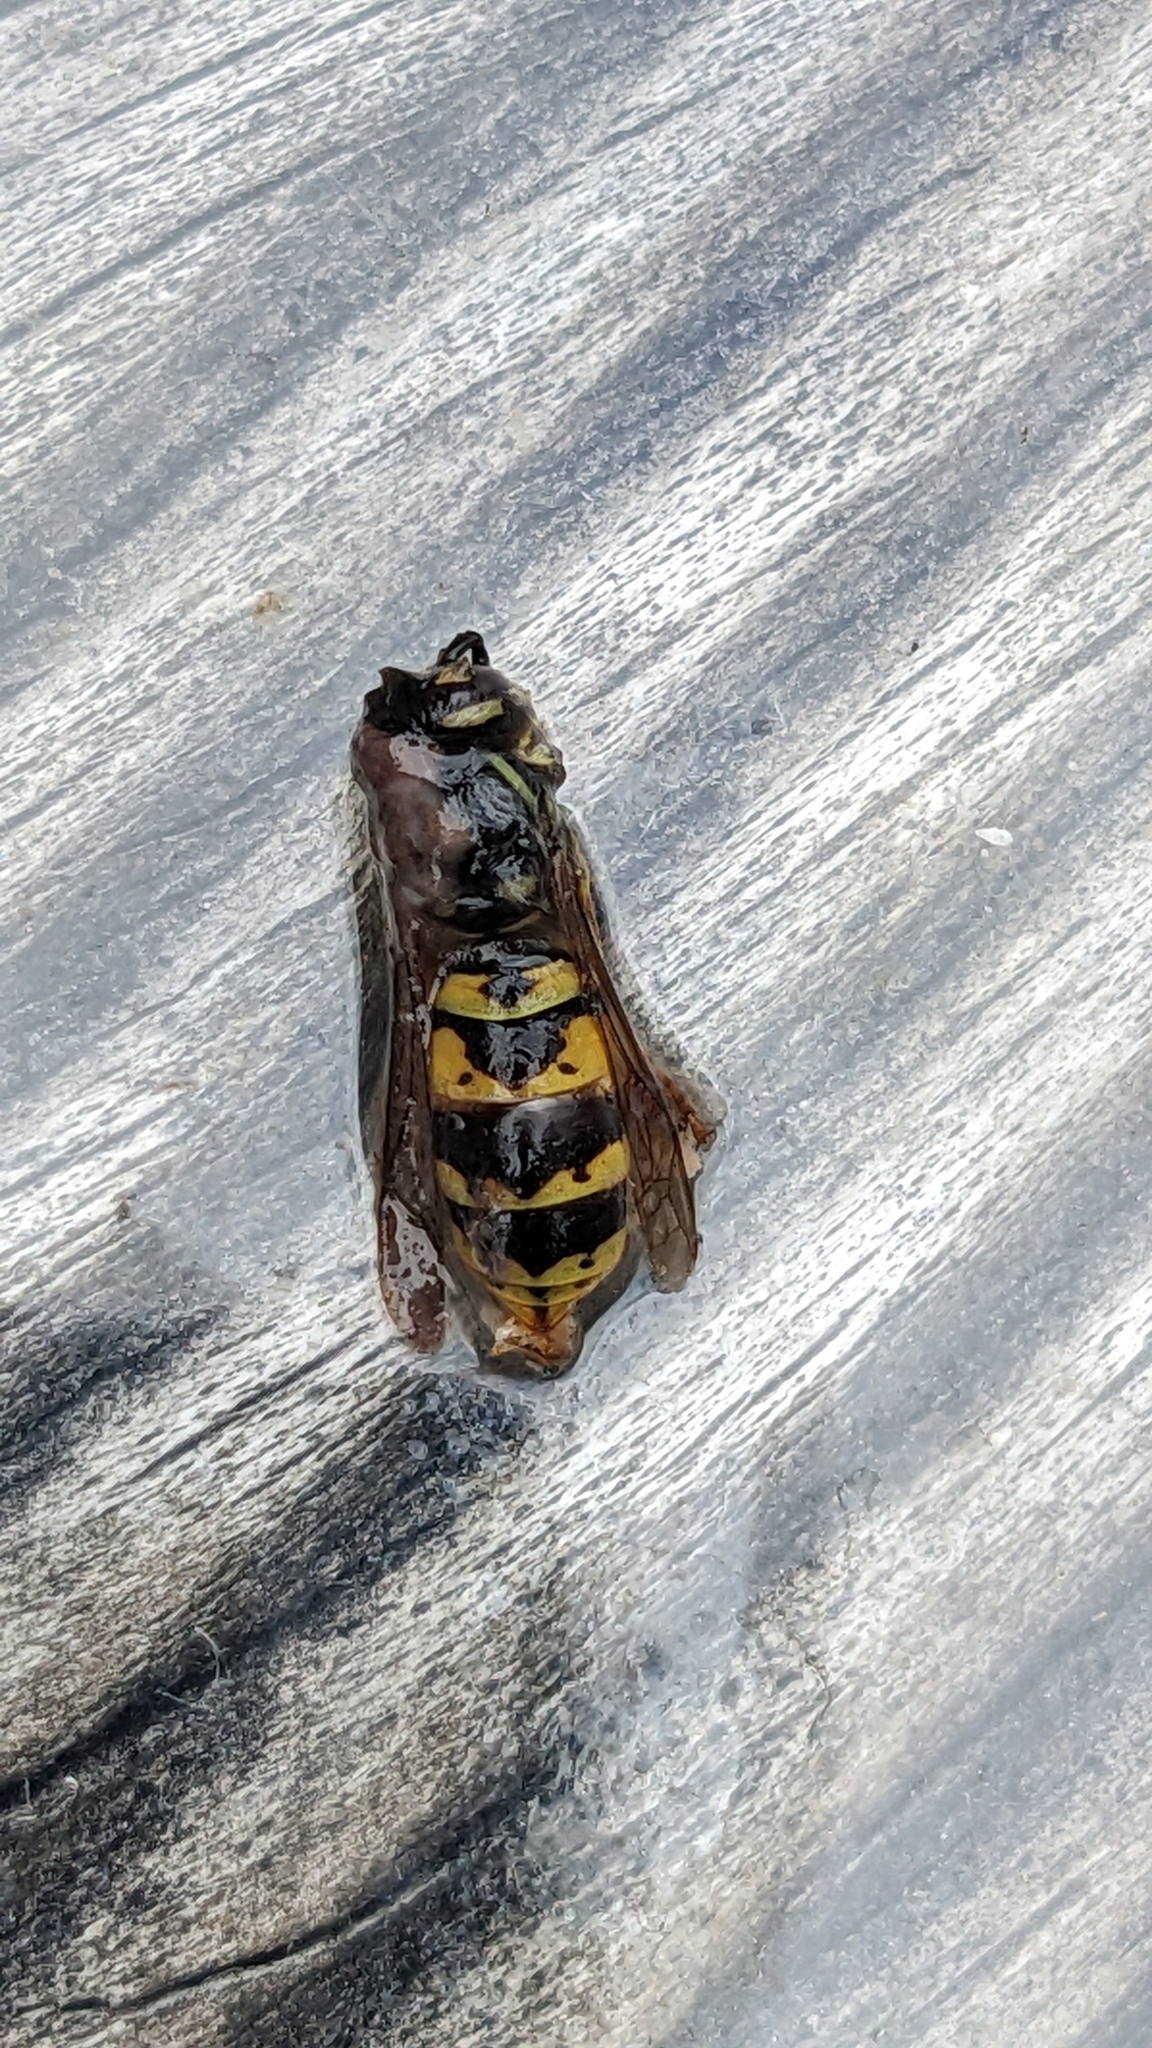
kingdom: Animalia
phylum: Arthropoda
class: Insecta
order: Hymenoptera
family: Vespidae
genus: Vespula
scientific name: Vespula vulgaris
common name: Common wasp
